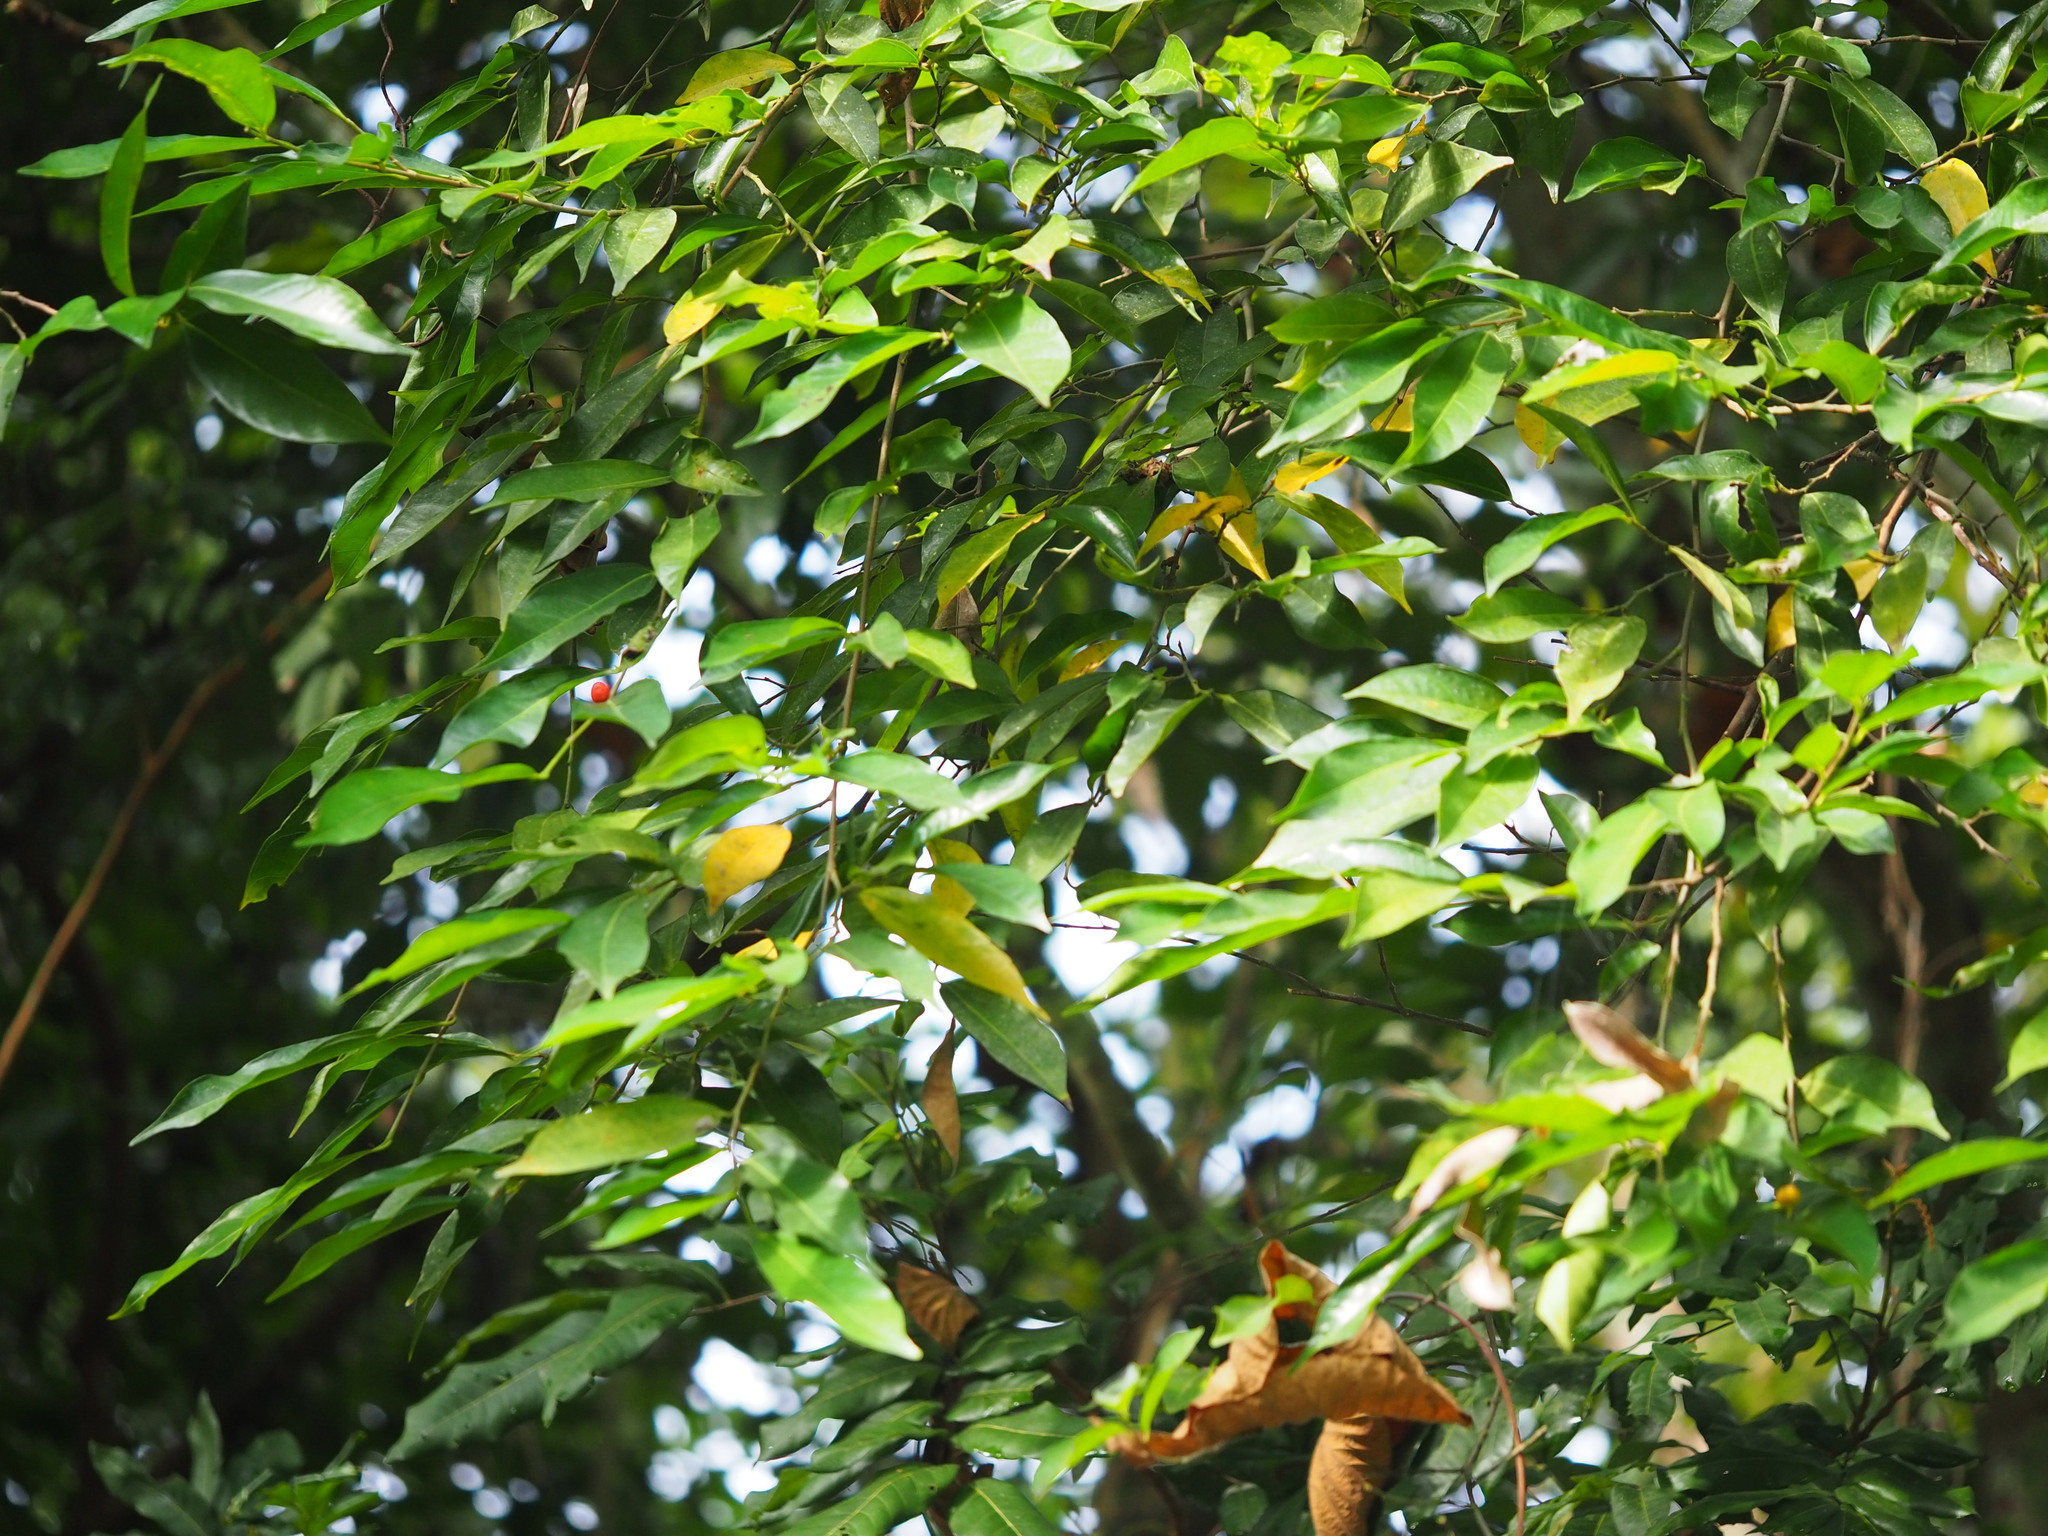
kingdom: Plantae
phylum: Tracheophyta
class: Magnoliopsida
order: Rosales
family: Moraceae
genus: Ficus
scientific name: Ficus ampelos
